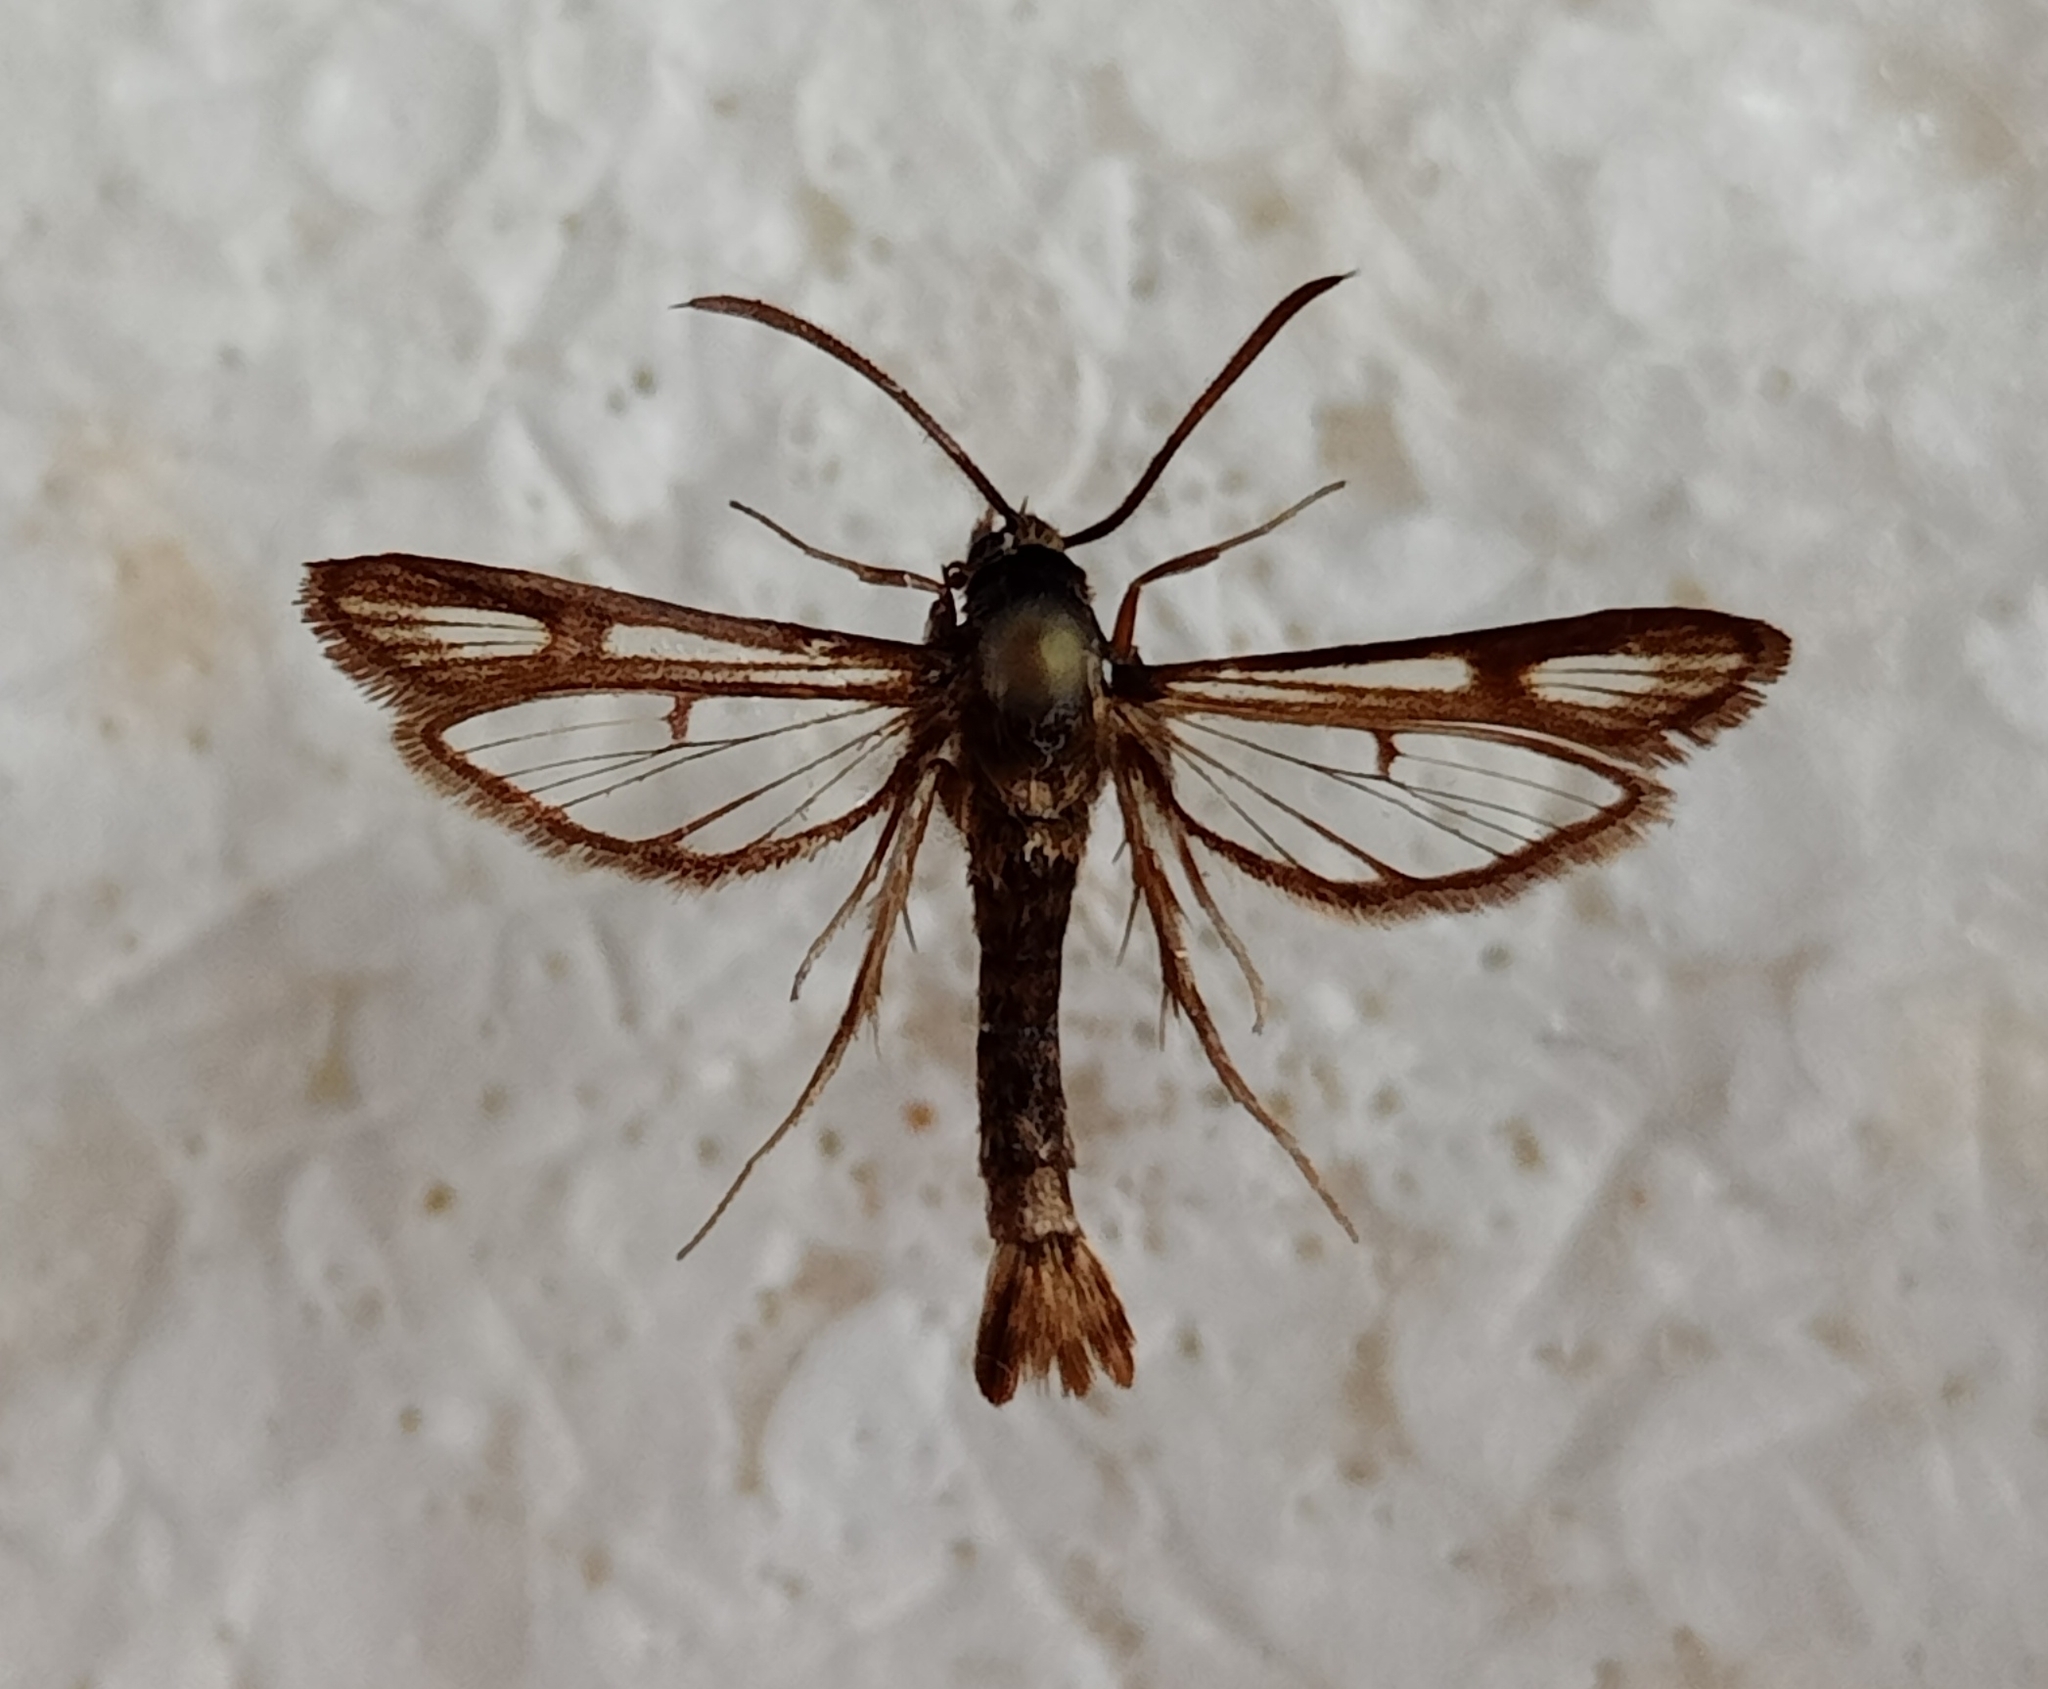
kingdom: Animalia
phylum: Arthropoda
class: Insecta
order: Lepidoptera
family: Sesiidae
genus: Chamaesphecia
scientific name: Chamaesphecia leucopsiformis
